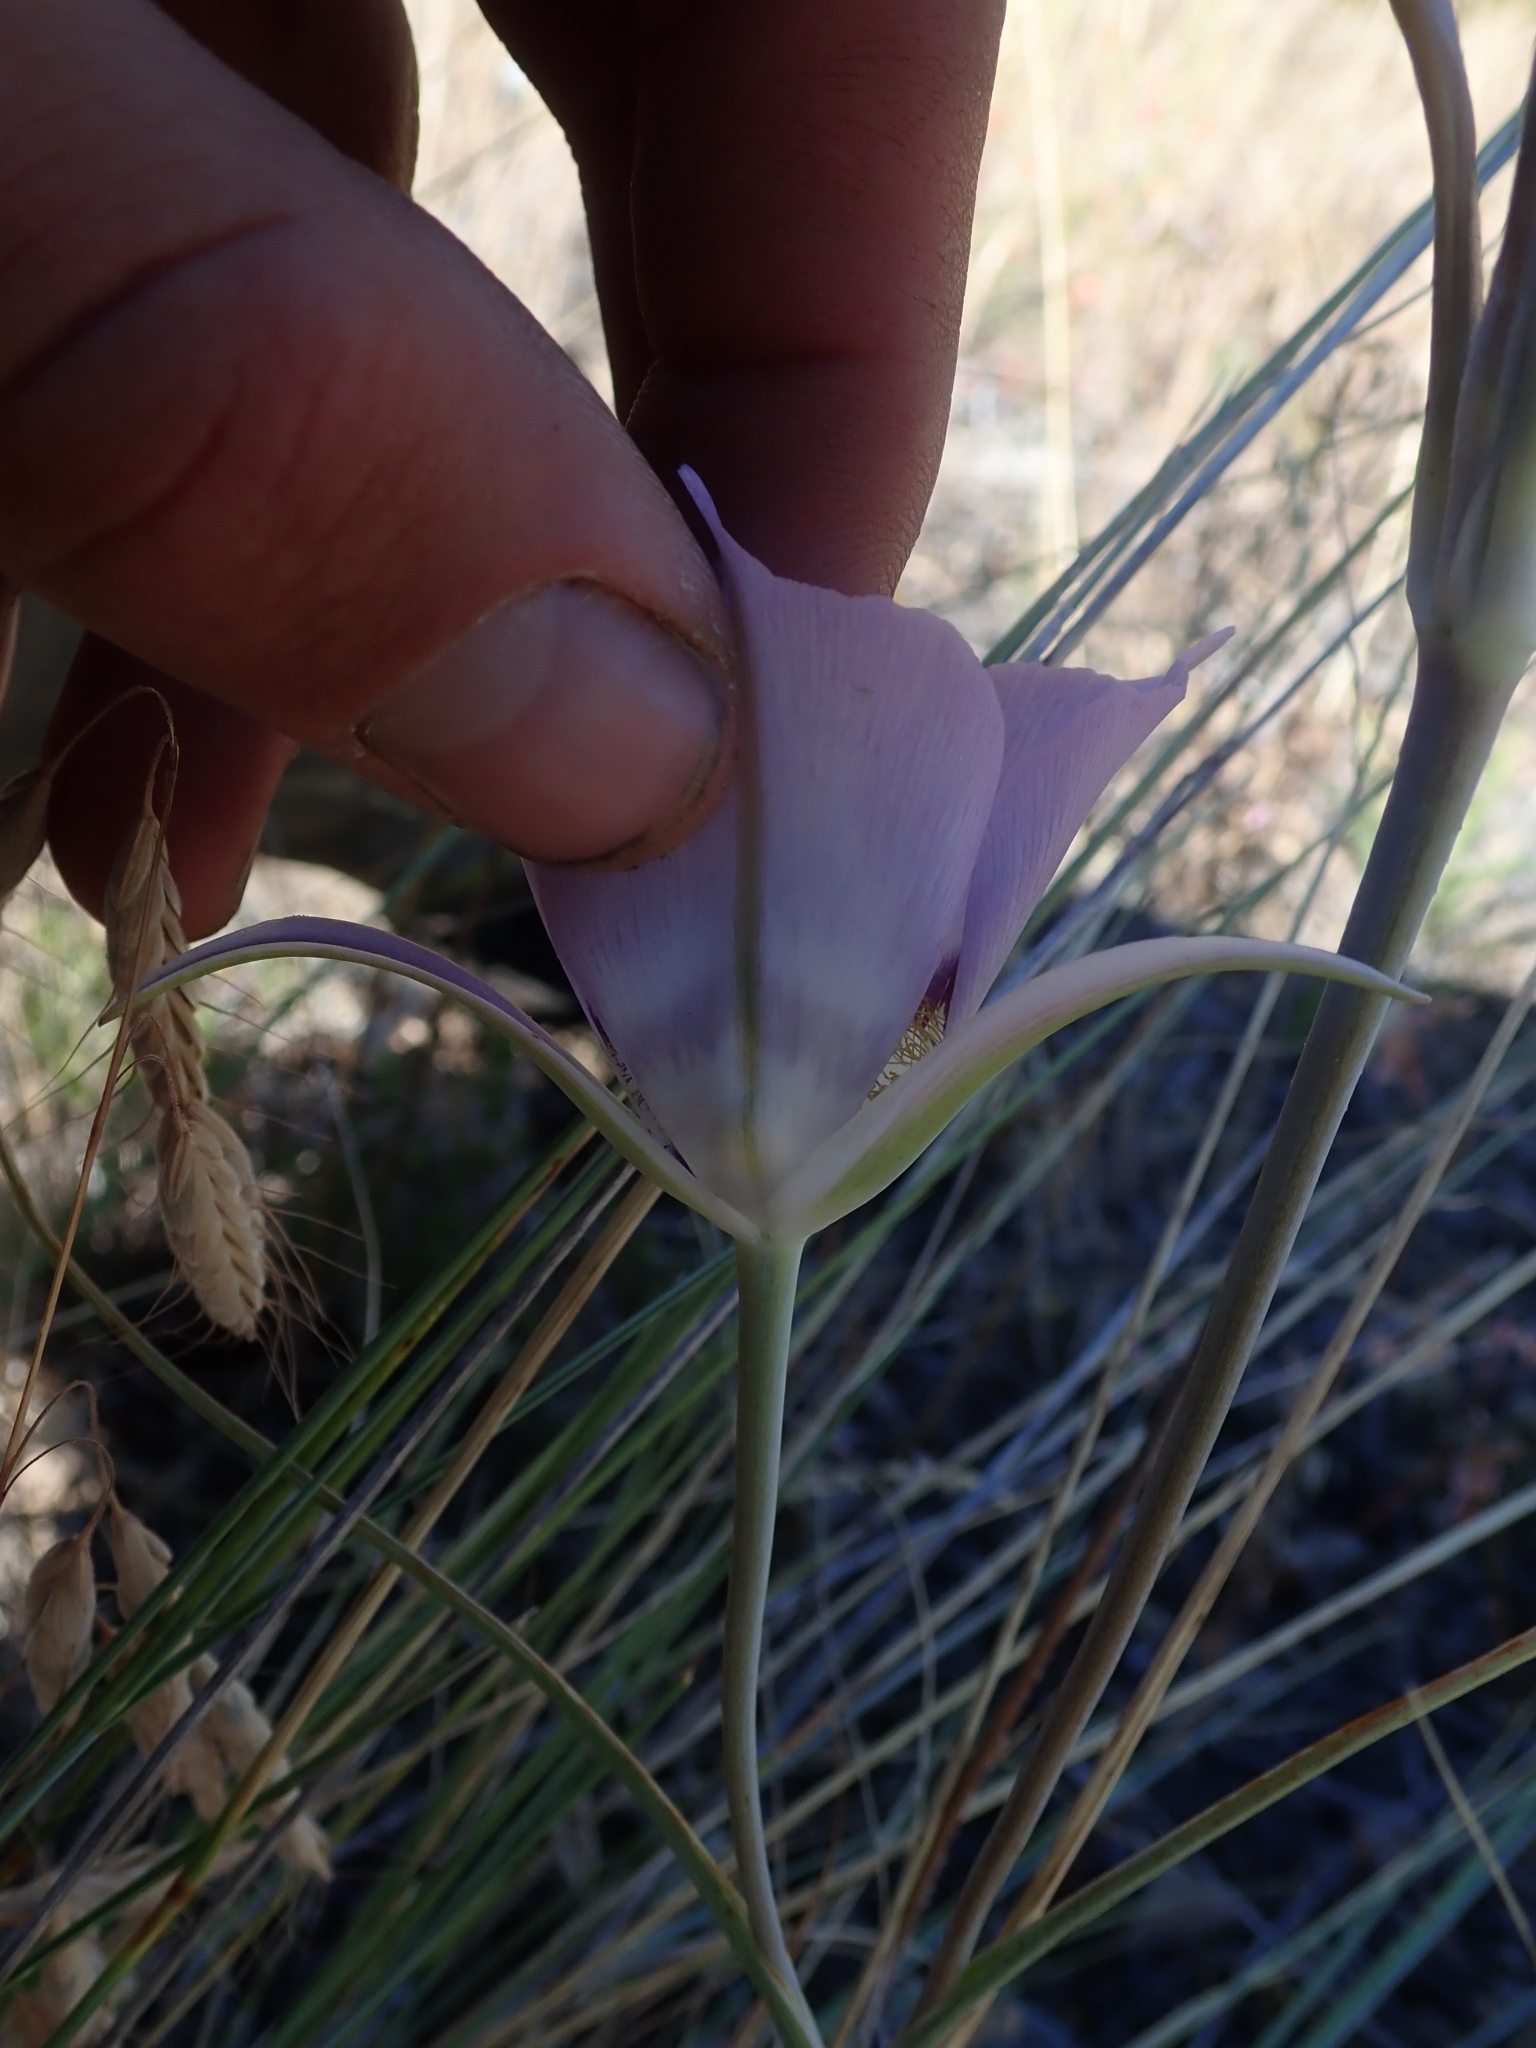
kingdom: Plantae
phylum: Tracheophyta
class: Liliopsida
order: Liliales
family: Liliaceae
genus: Calochortus
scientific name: Calochortus macrocarpus
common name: Green-band mariposa lily
